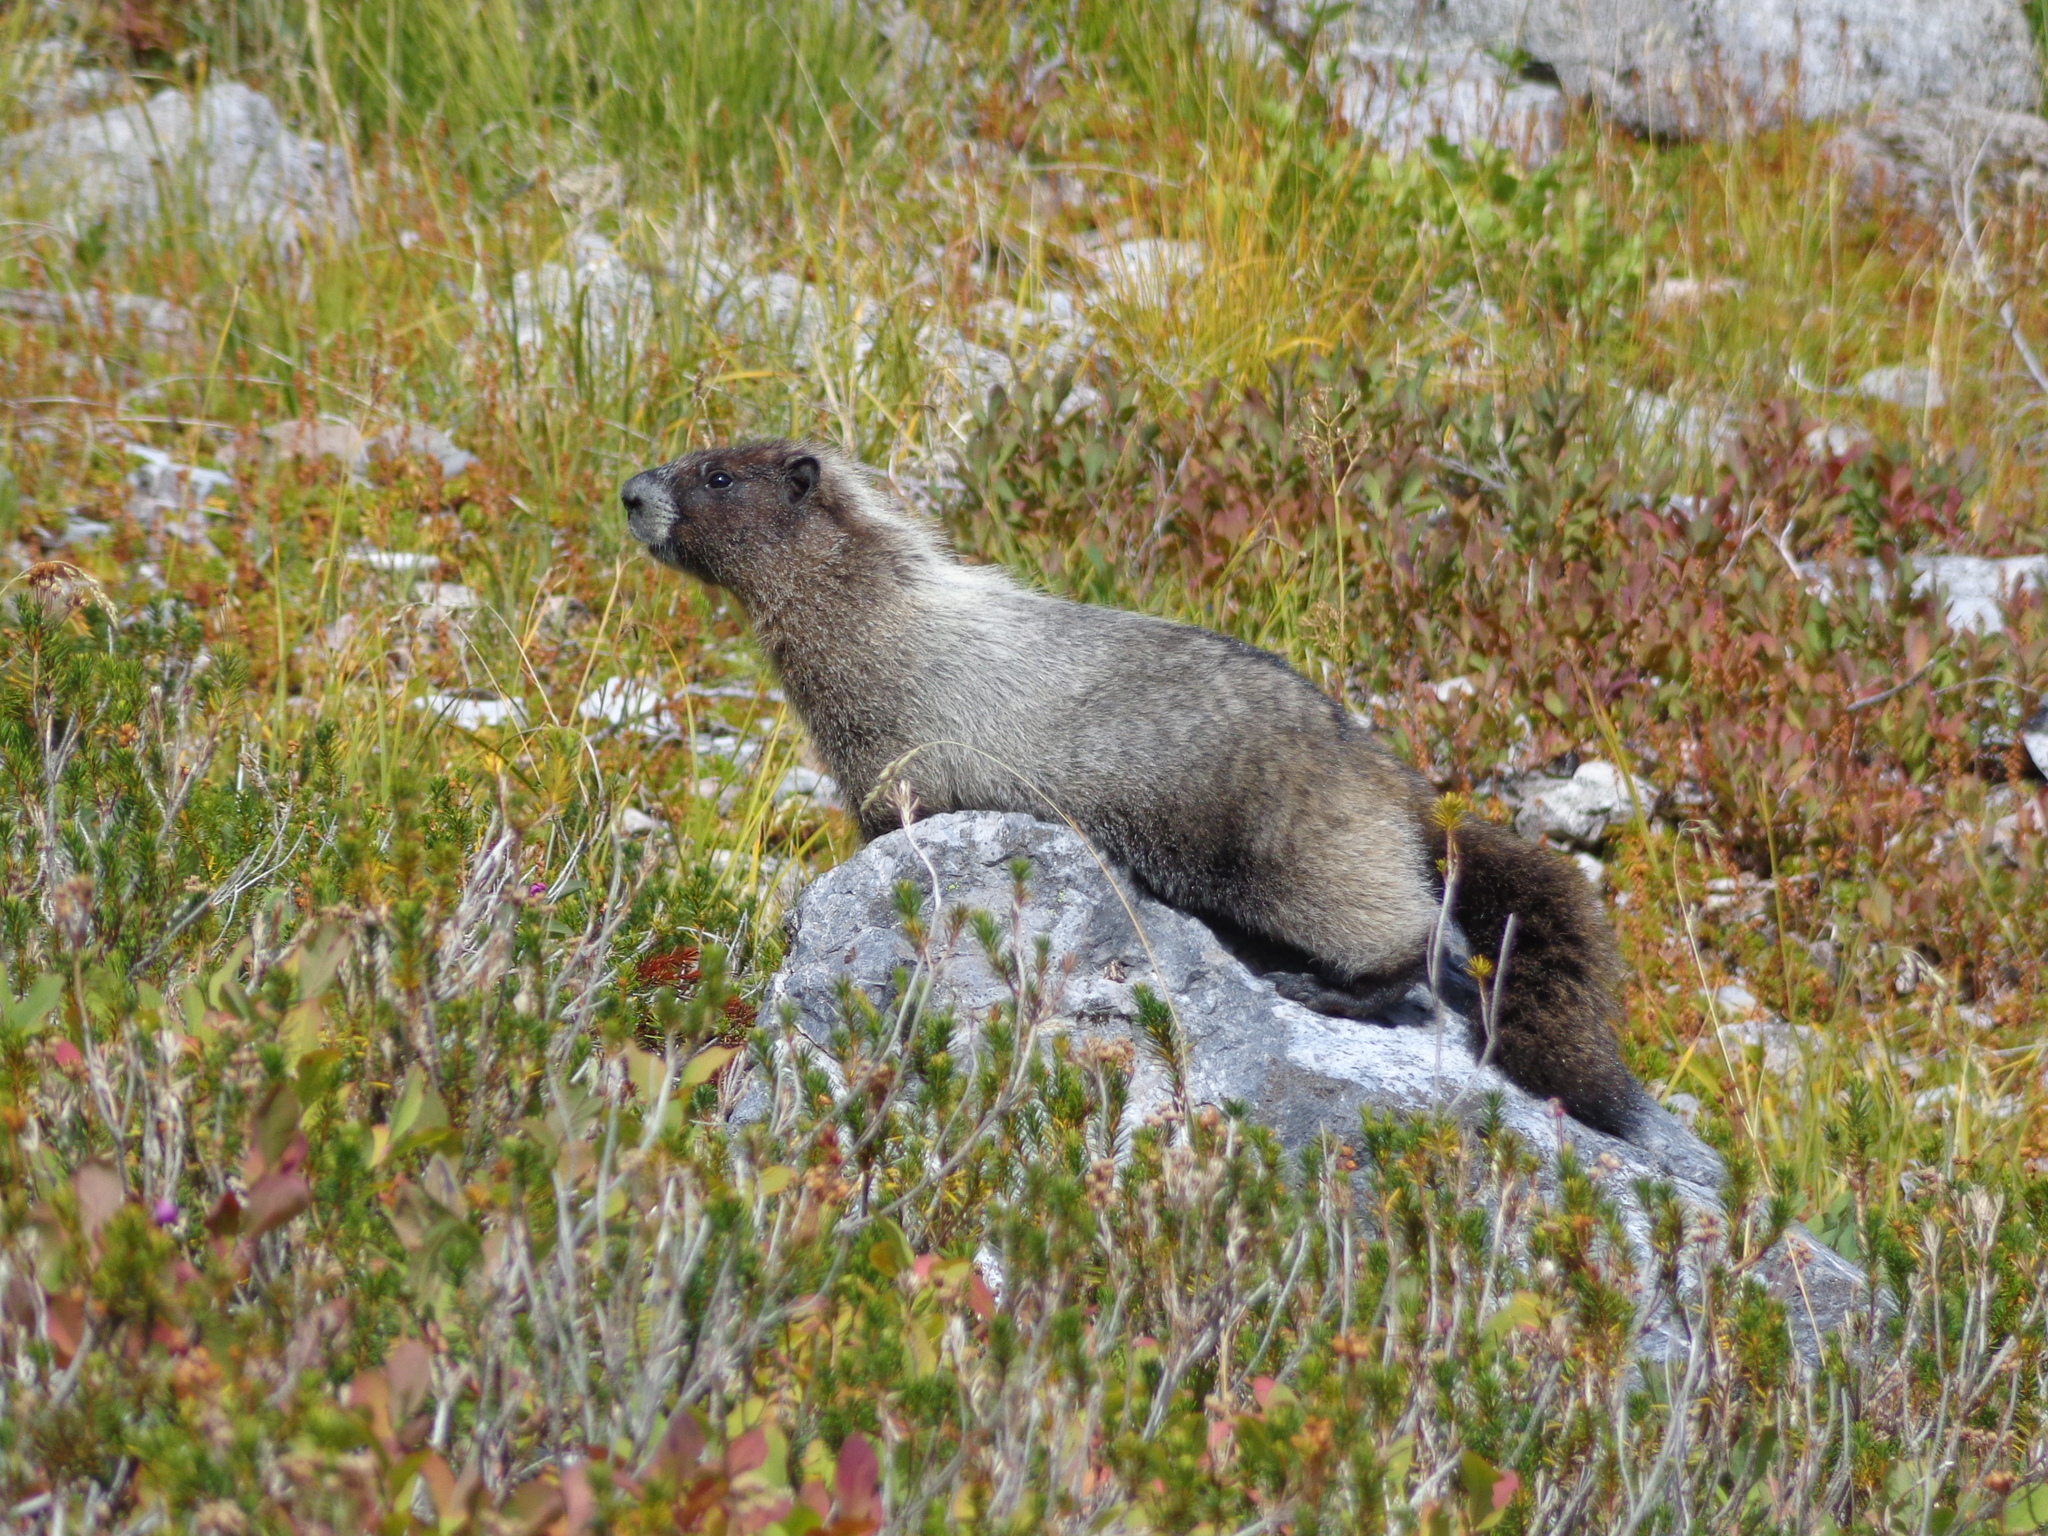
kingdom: Animalia
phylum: Chordata
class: Mammalia
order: Rodentia
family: Sciuridae
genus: Marmota
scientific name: Marmota caligata
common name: Hoary marmot
